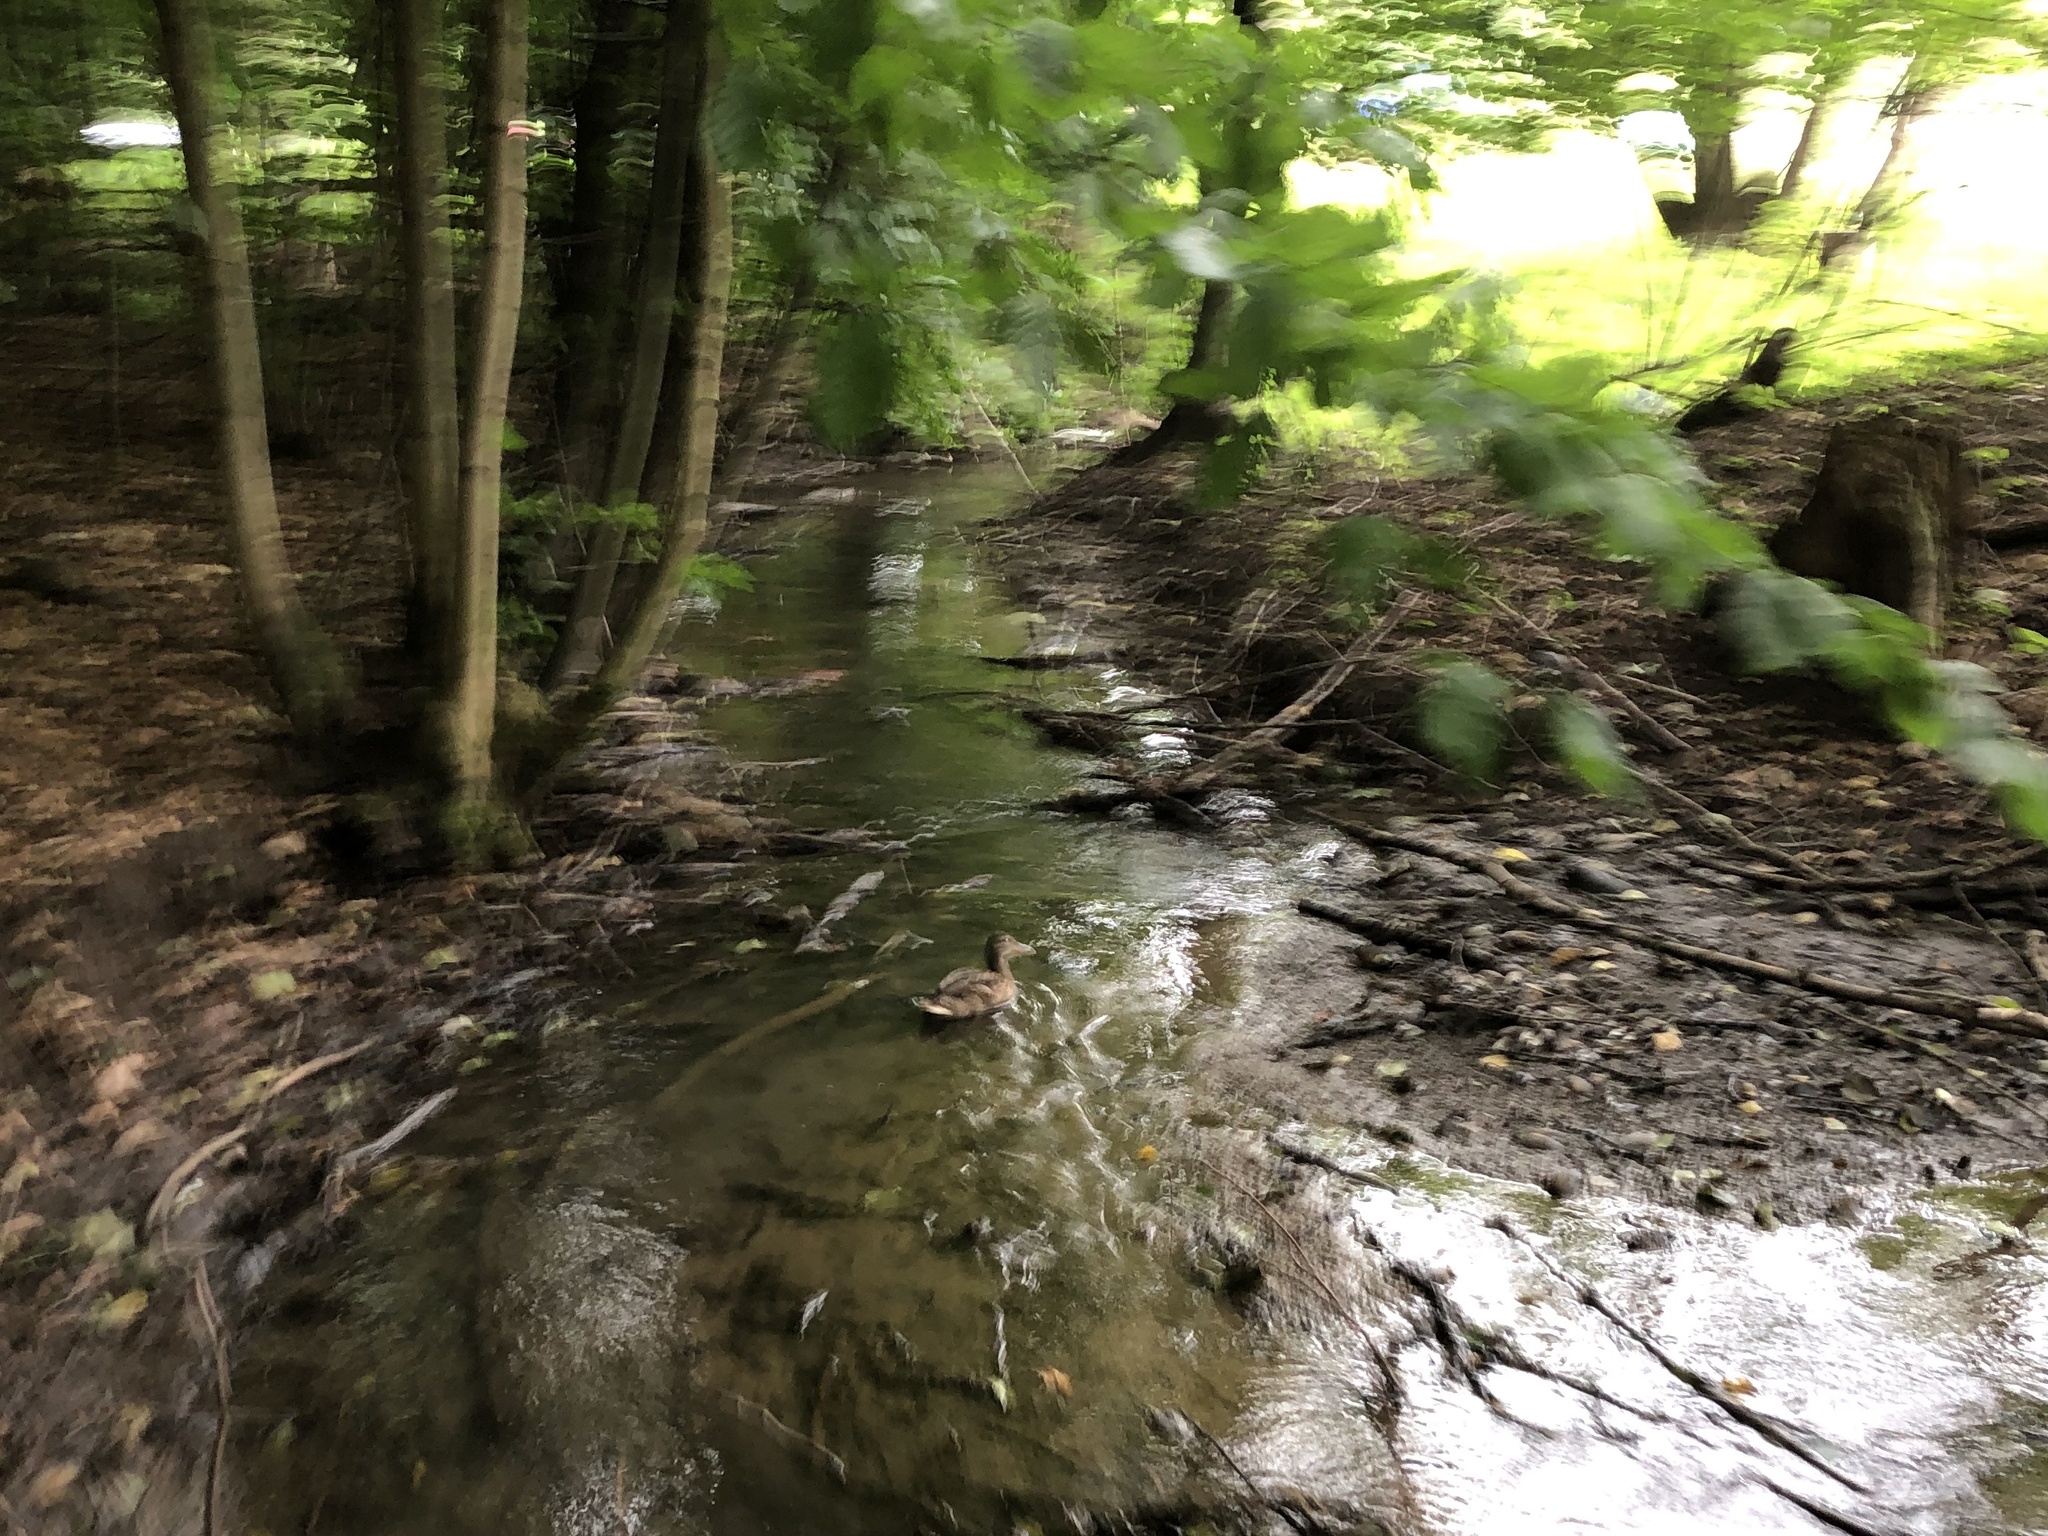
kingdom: Animalia
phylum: Chordata
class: Aves
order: Anseriformes
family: Anatidae
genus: Anas
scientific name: Anas platyrhynchos
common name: Mallard
